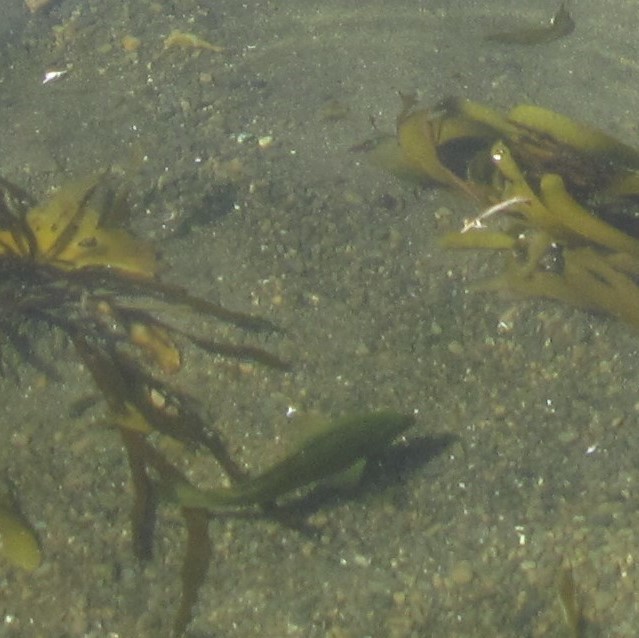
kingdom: Animalia
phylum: Chordata
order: Perciformes
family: Labridae
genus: Notolabrus
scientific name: Notolabrus fucicola
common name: Banded parrotfish
